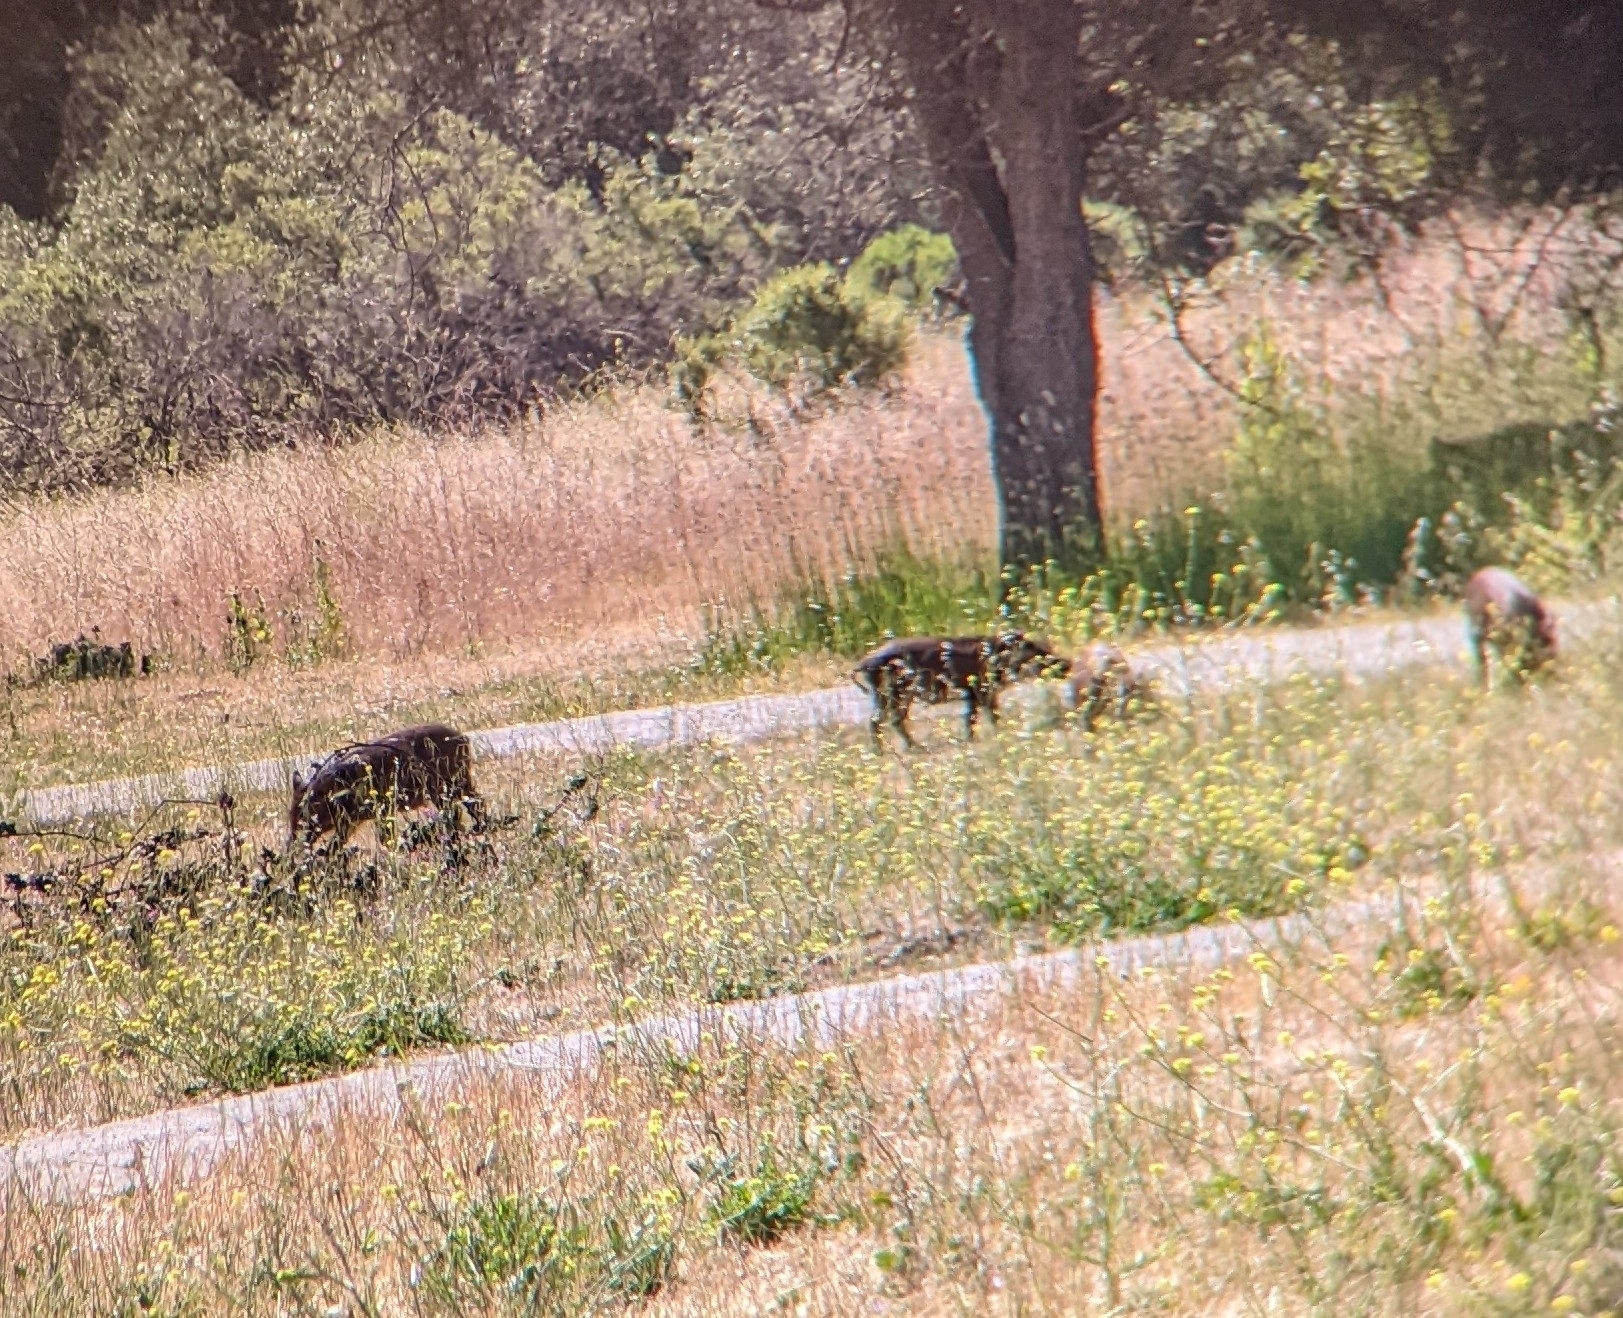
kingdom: Animalia
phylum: Chordata
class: Mammalia
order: Artiodactyla
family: Suidae
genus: Sus
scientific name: Sus scrofa
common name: Wild boar
